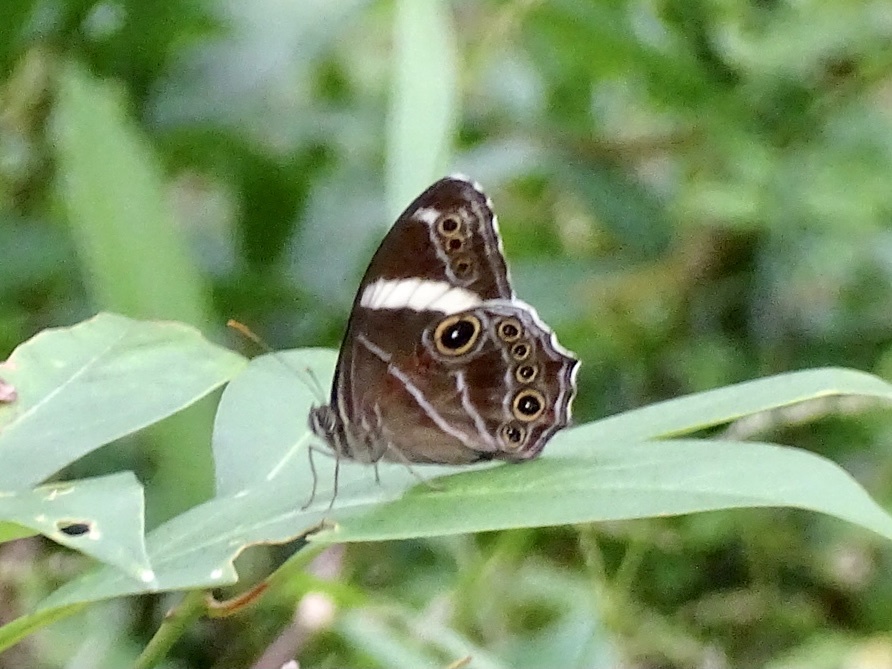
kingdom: Animalia
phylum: Arthropoda
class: Insecta
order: Lepidoptera
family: Nymphalidae
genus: Lethe
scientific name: Lethe confusa
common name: Banded treebrown
